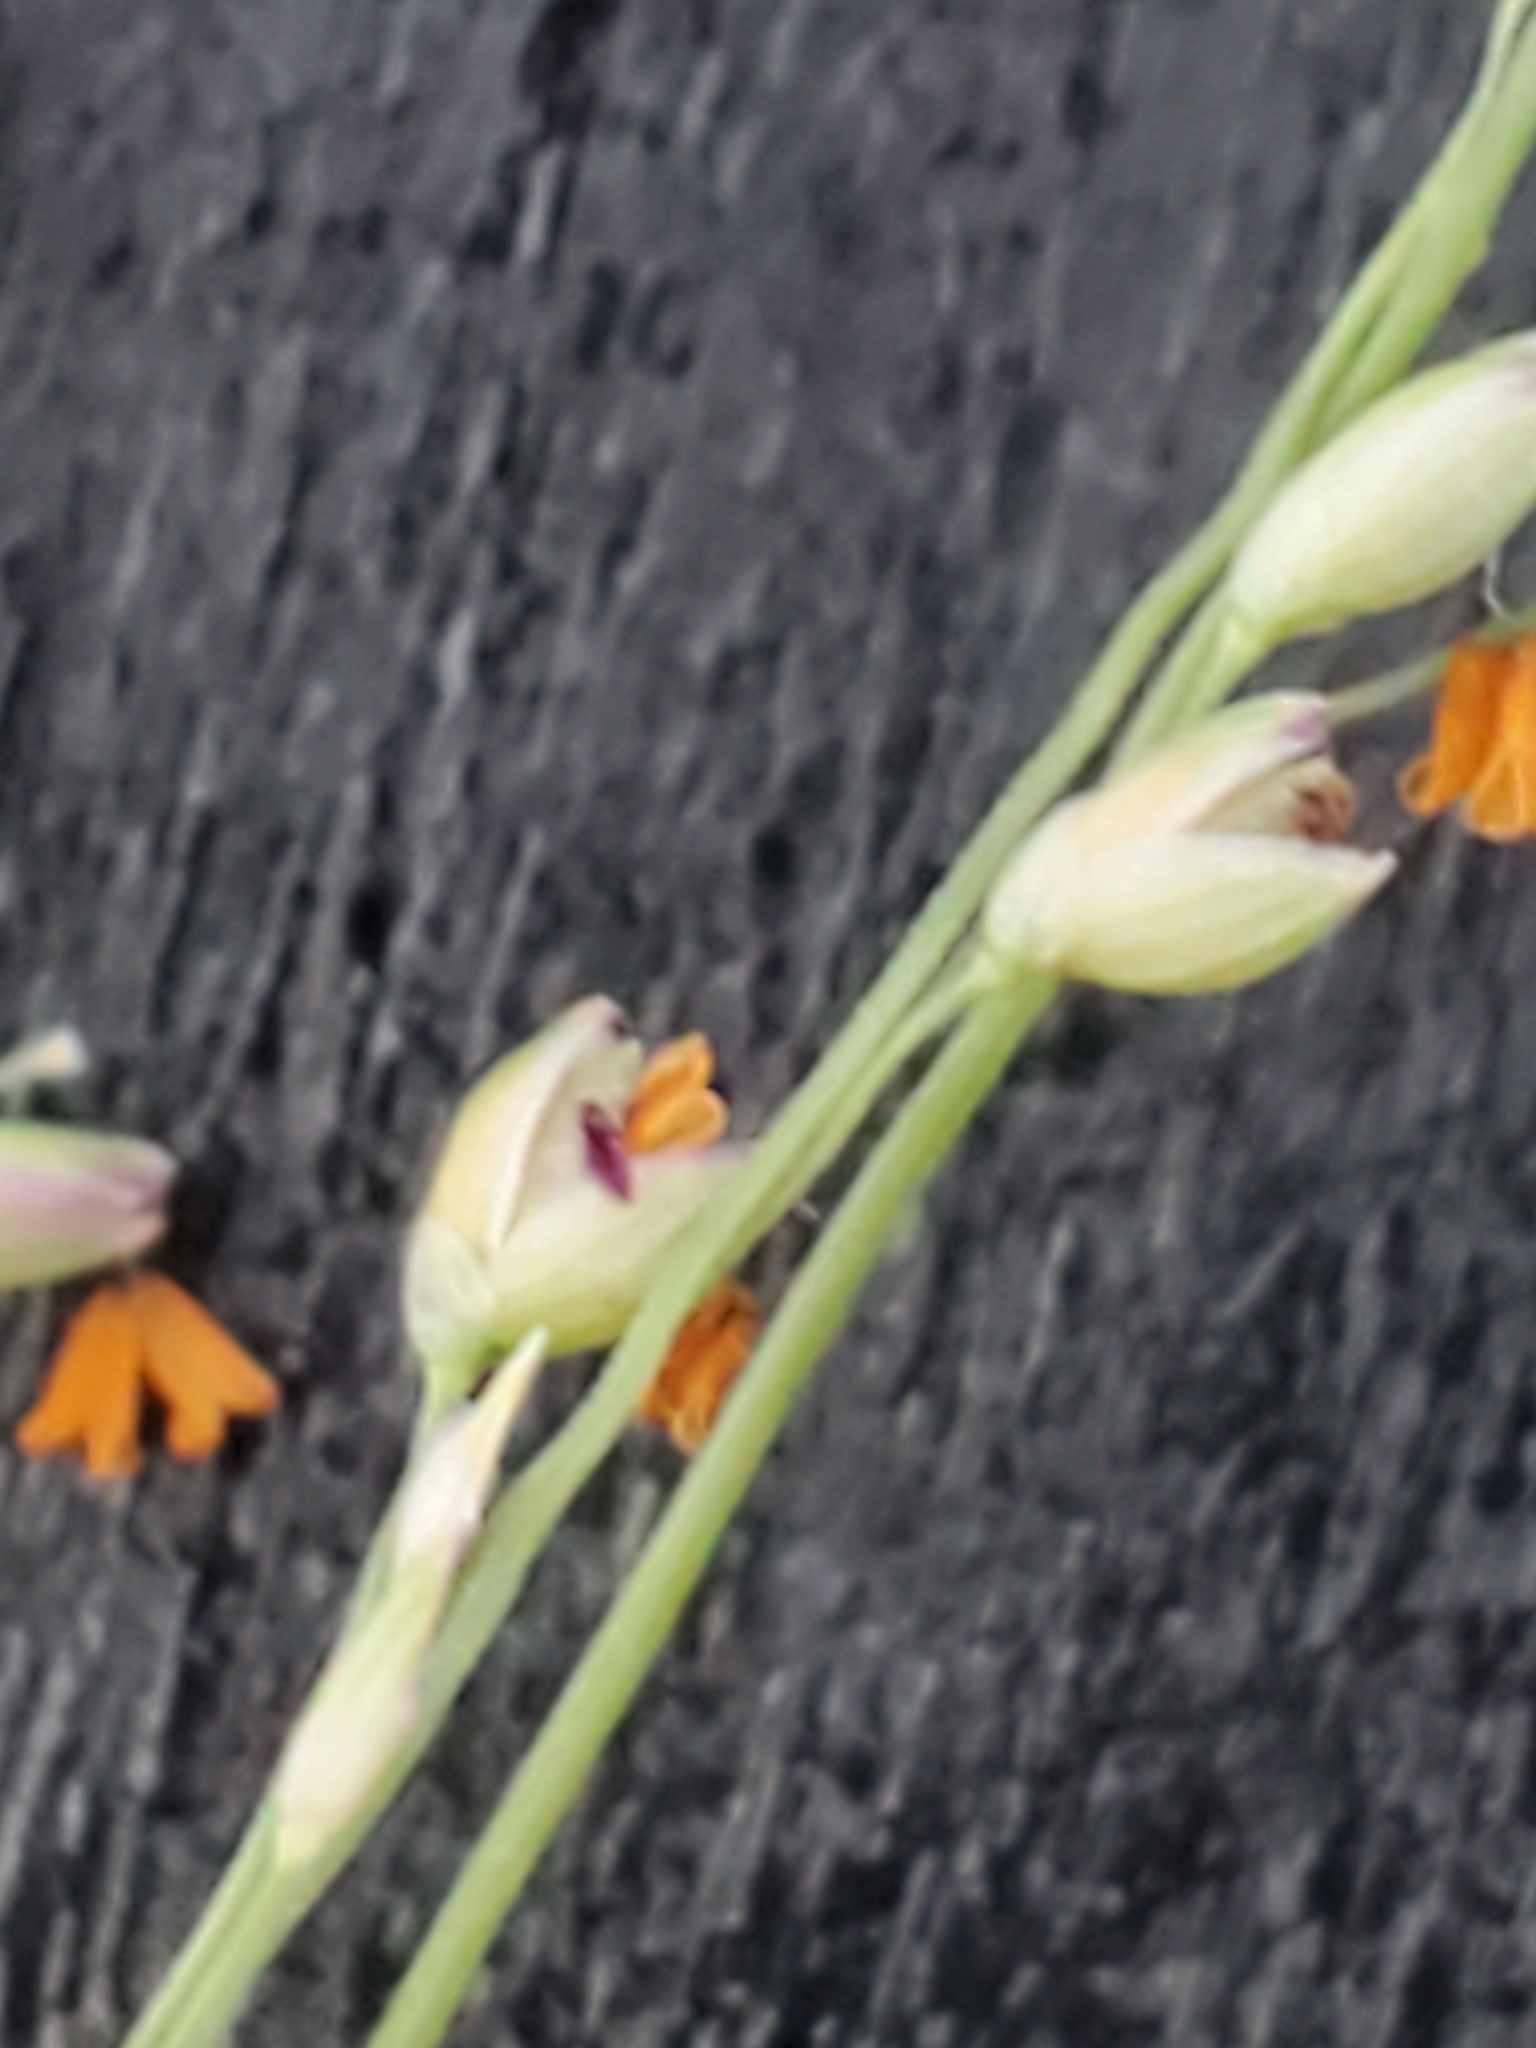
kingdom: Plantae
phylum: Tracheophyta
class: Liliopsida
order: Poales
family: Poaceae
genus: Panicum
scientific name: Panicum coloratum
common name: Kleingrass
